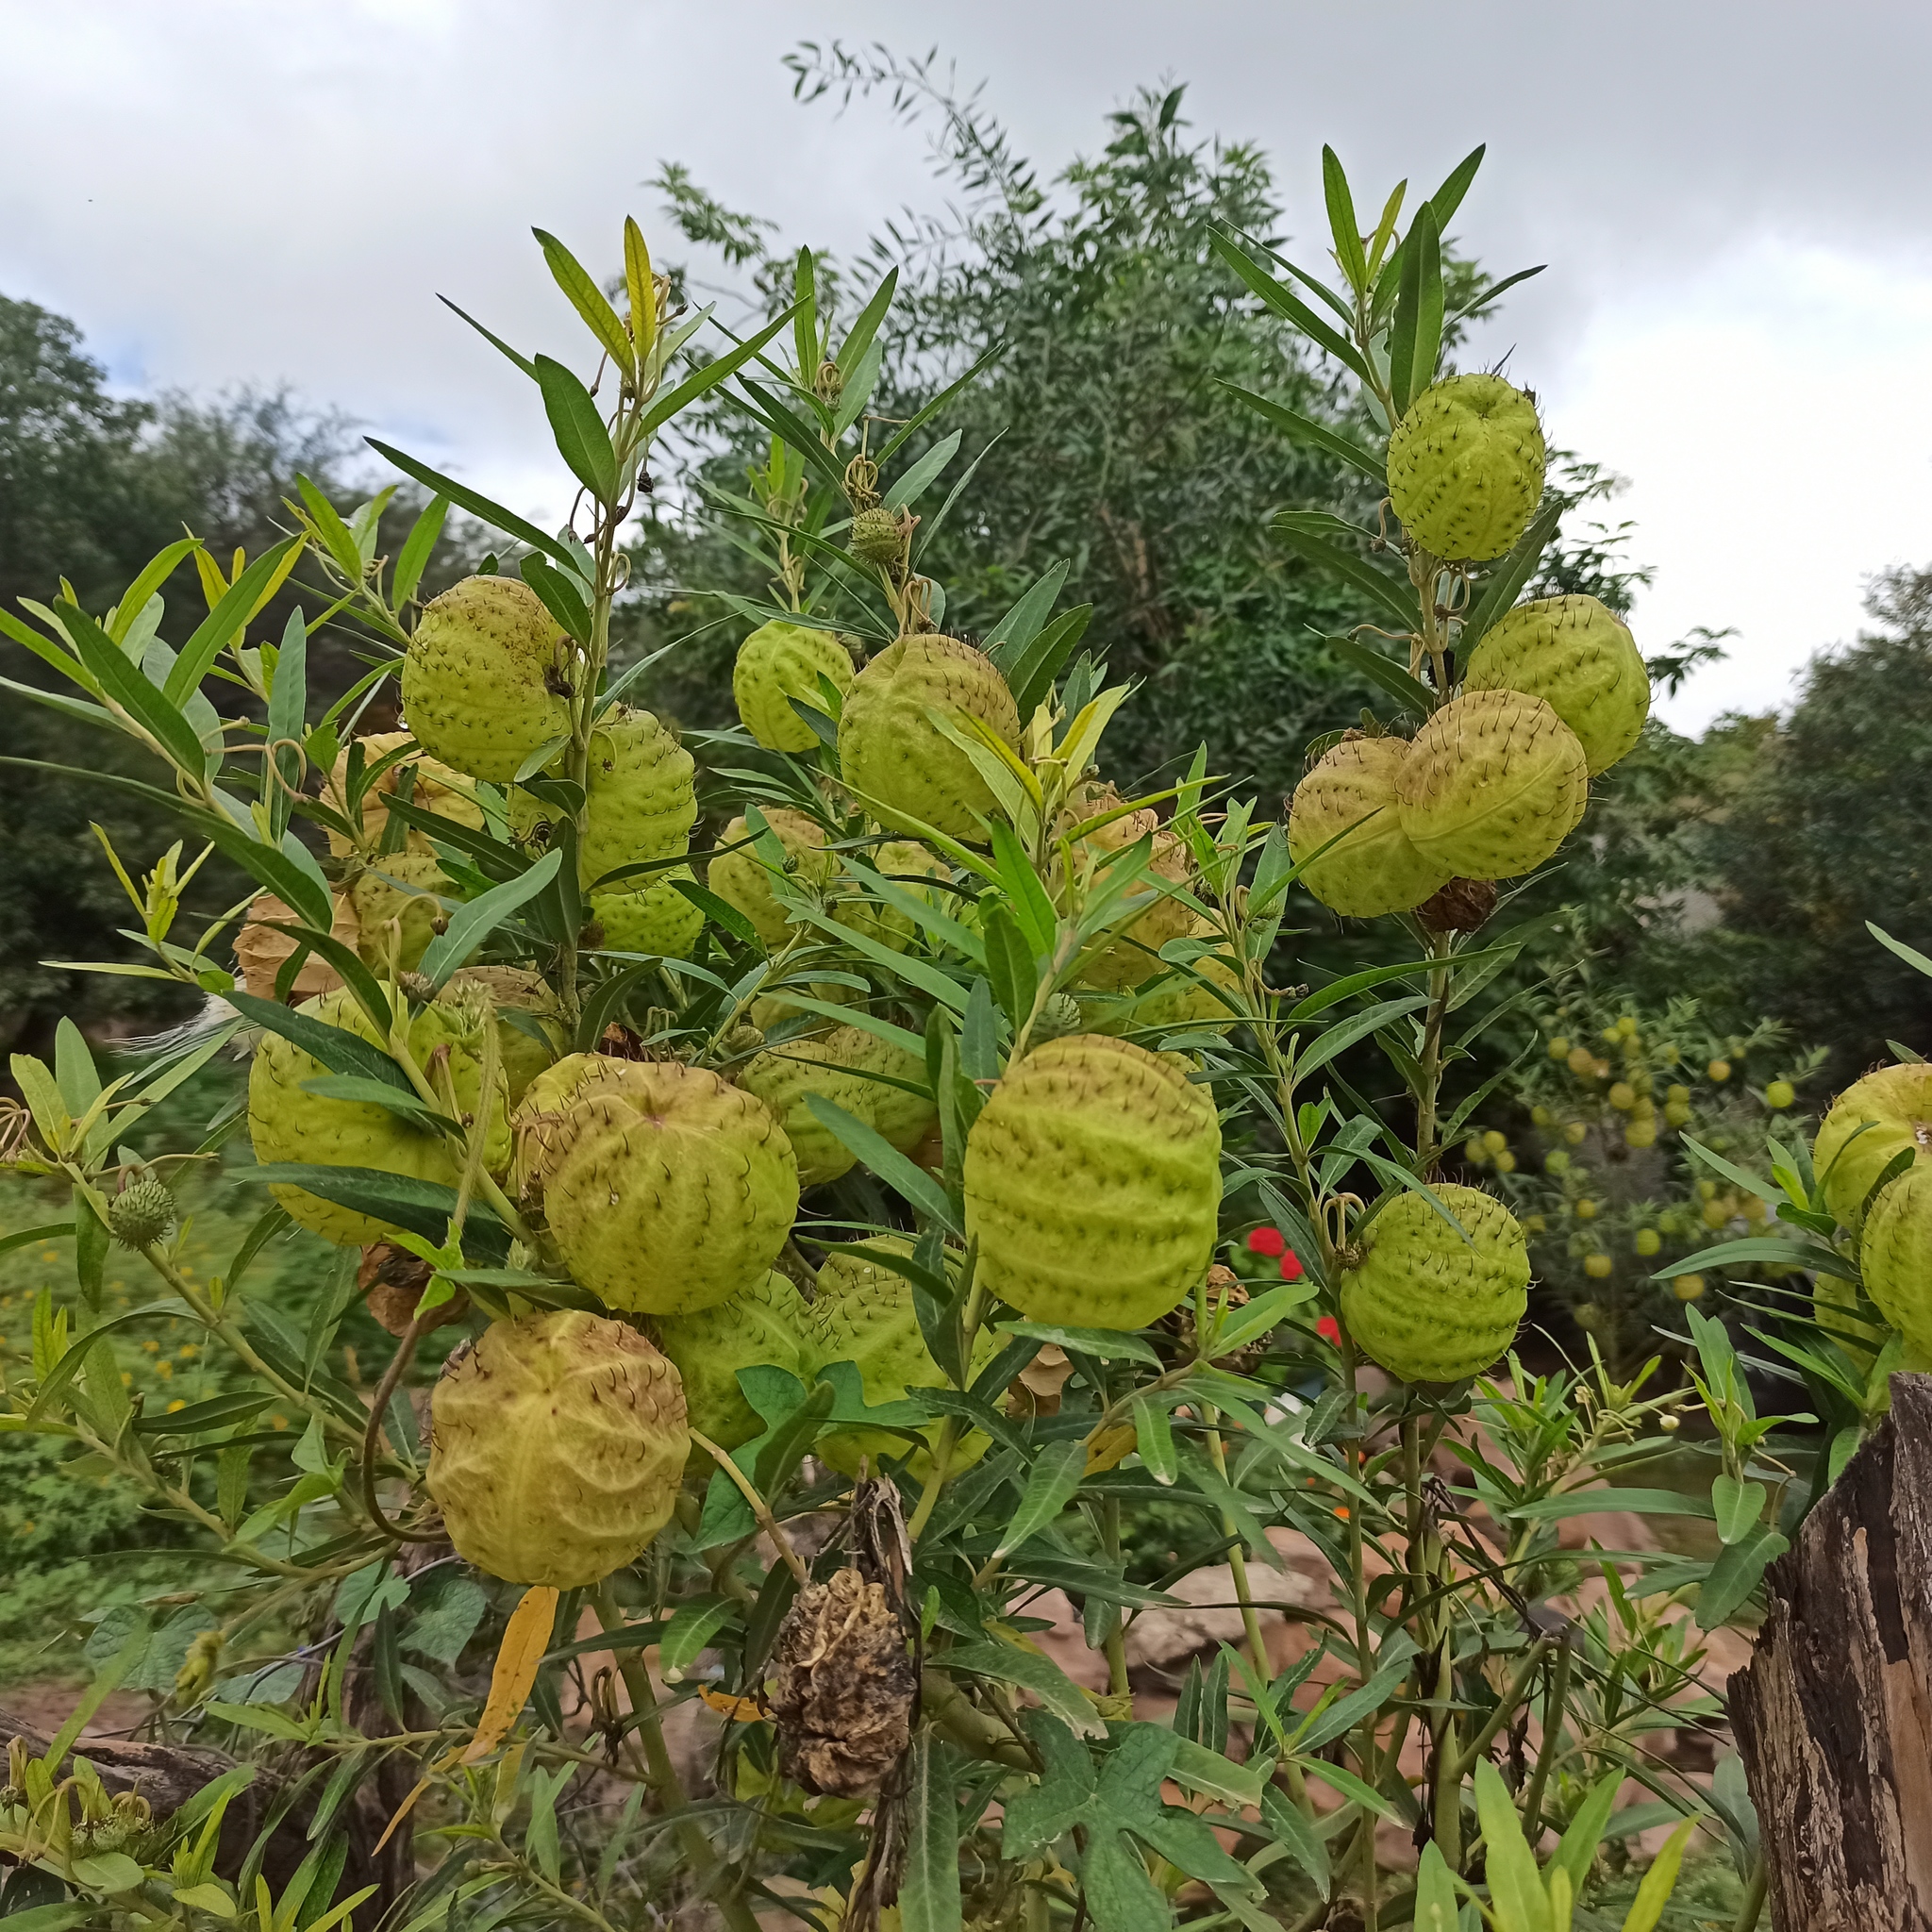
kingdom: Plantae
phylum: Tracheophyta
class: Magnoliopsida
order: Gentianales
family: Apocynaceae
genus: Gomphocarpus
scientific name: Gomphocarpus physocarpus
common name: Balloon cotton bush
